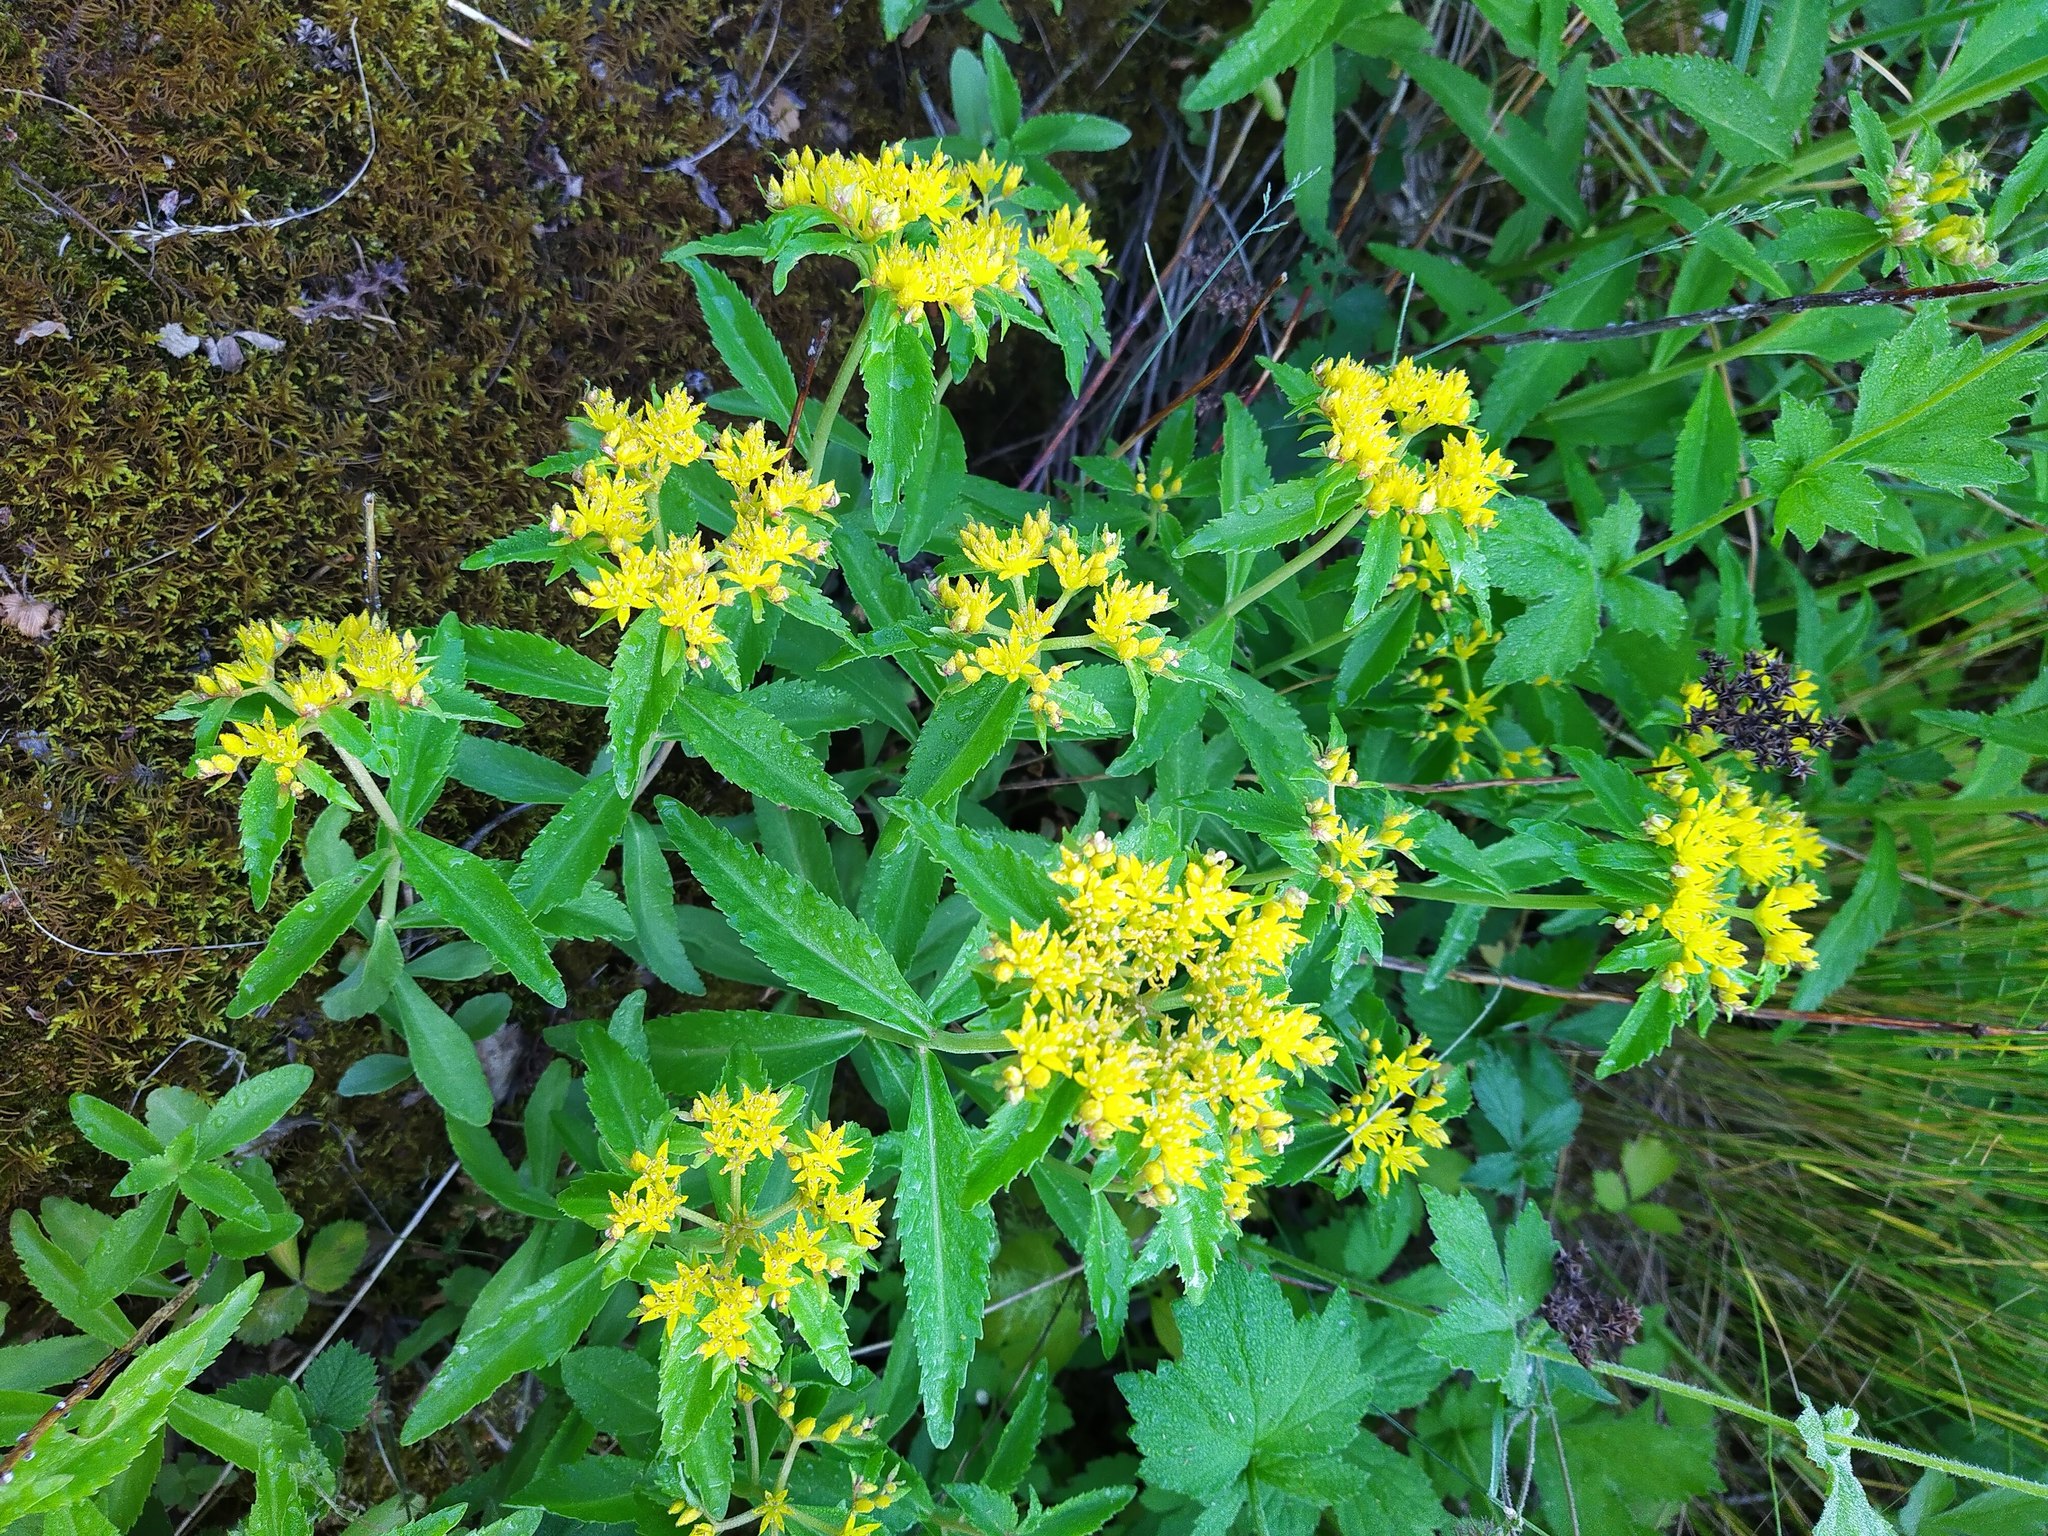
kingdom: Plantae
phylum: Tracheophyta
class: Magnoliopsida
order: Saxifragales
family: Crassulaceae
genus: Phedimus
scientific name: Phedimus aizoon
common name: Orpin aizoon
